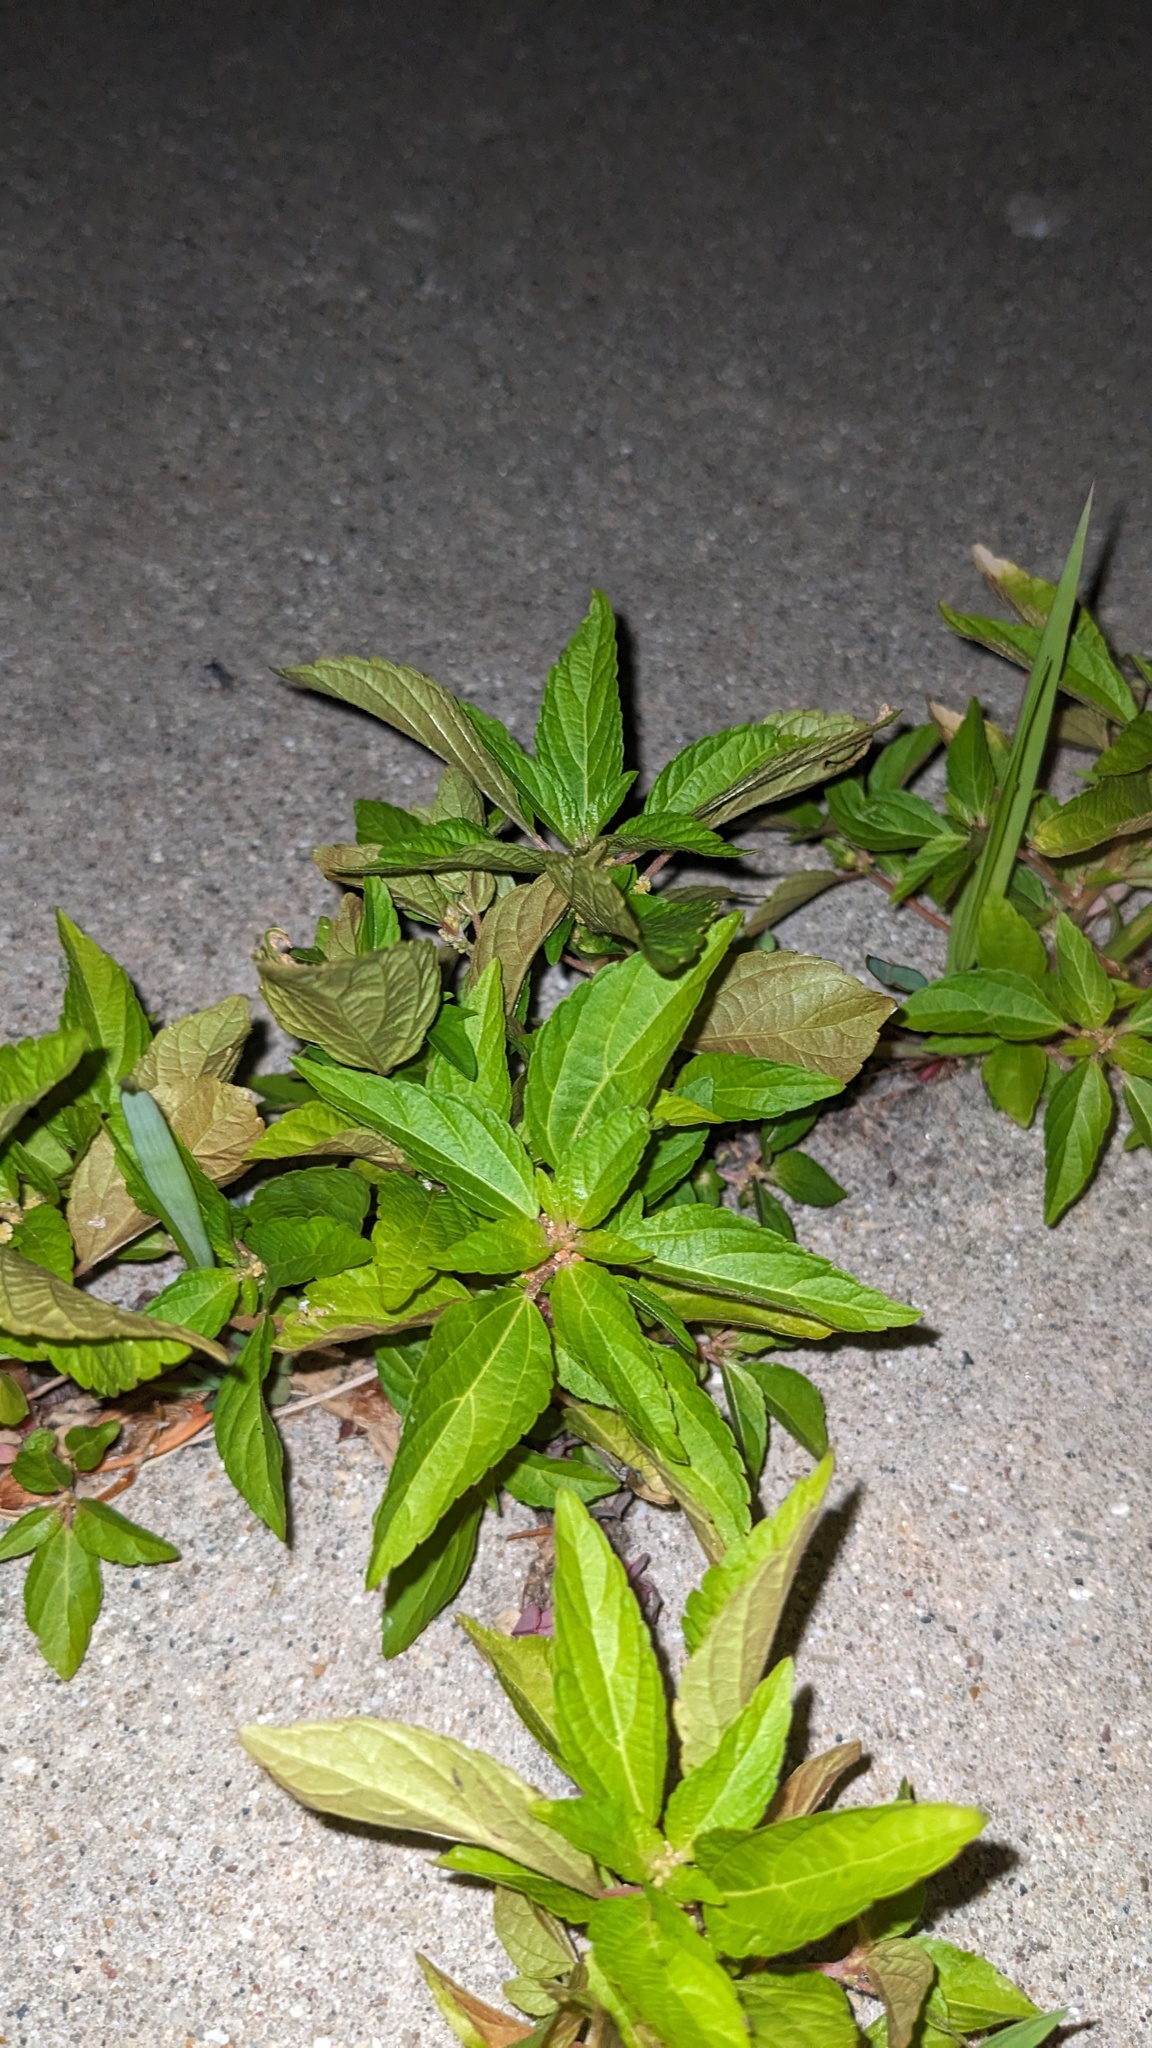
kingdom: Plantae
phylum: Tracheophyta
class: Magnoliopsida
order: Malpighiales
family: Euphorbiaceae
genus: Acalypha
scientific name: Acalypha rhomboidea
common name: Rhombic copperleaf
